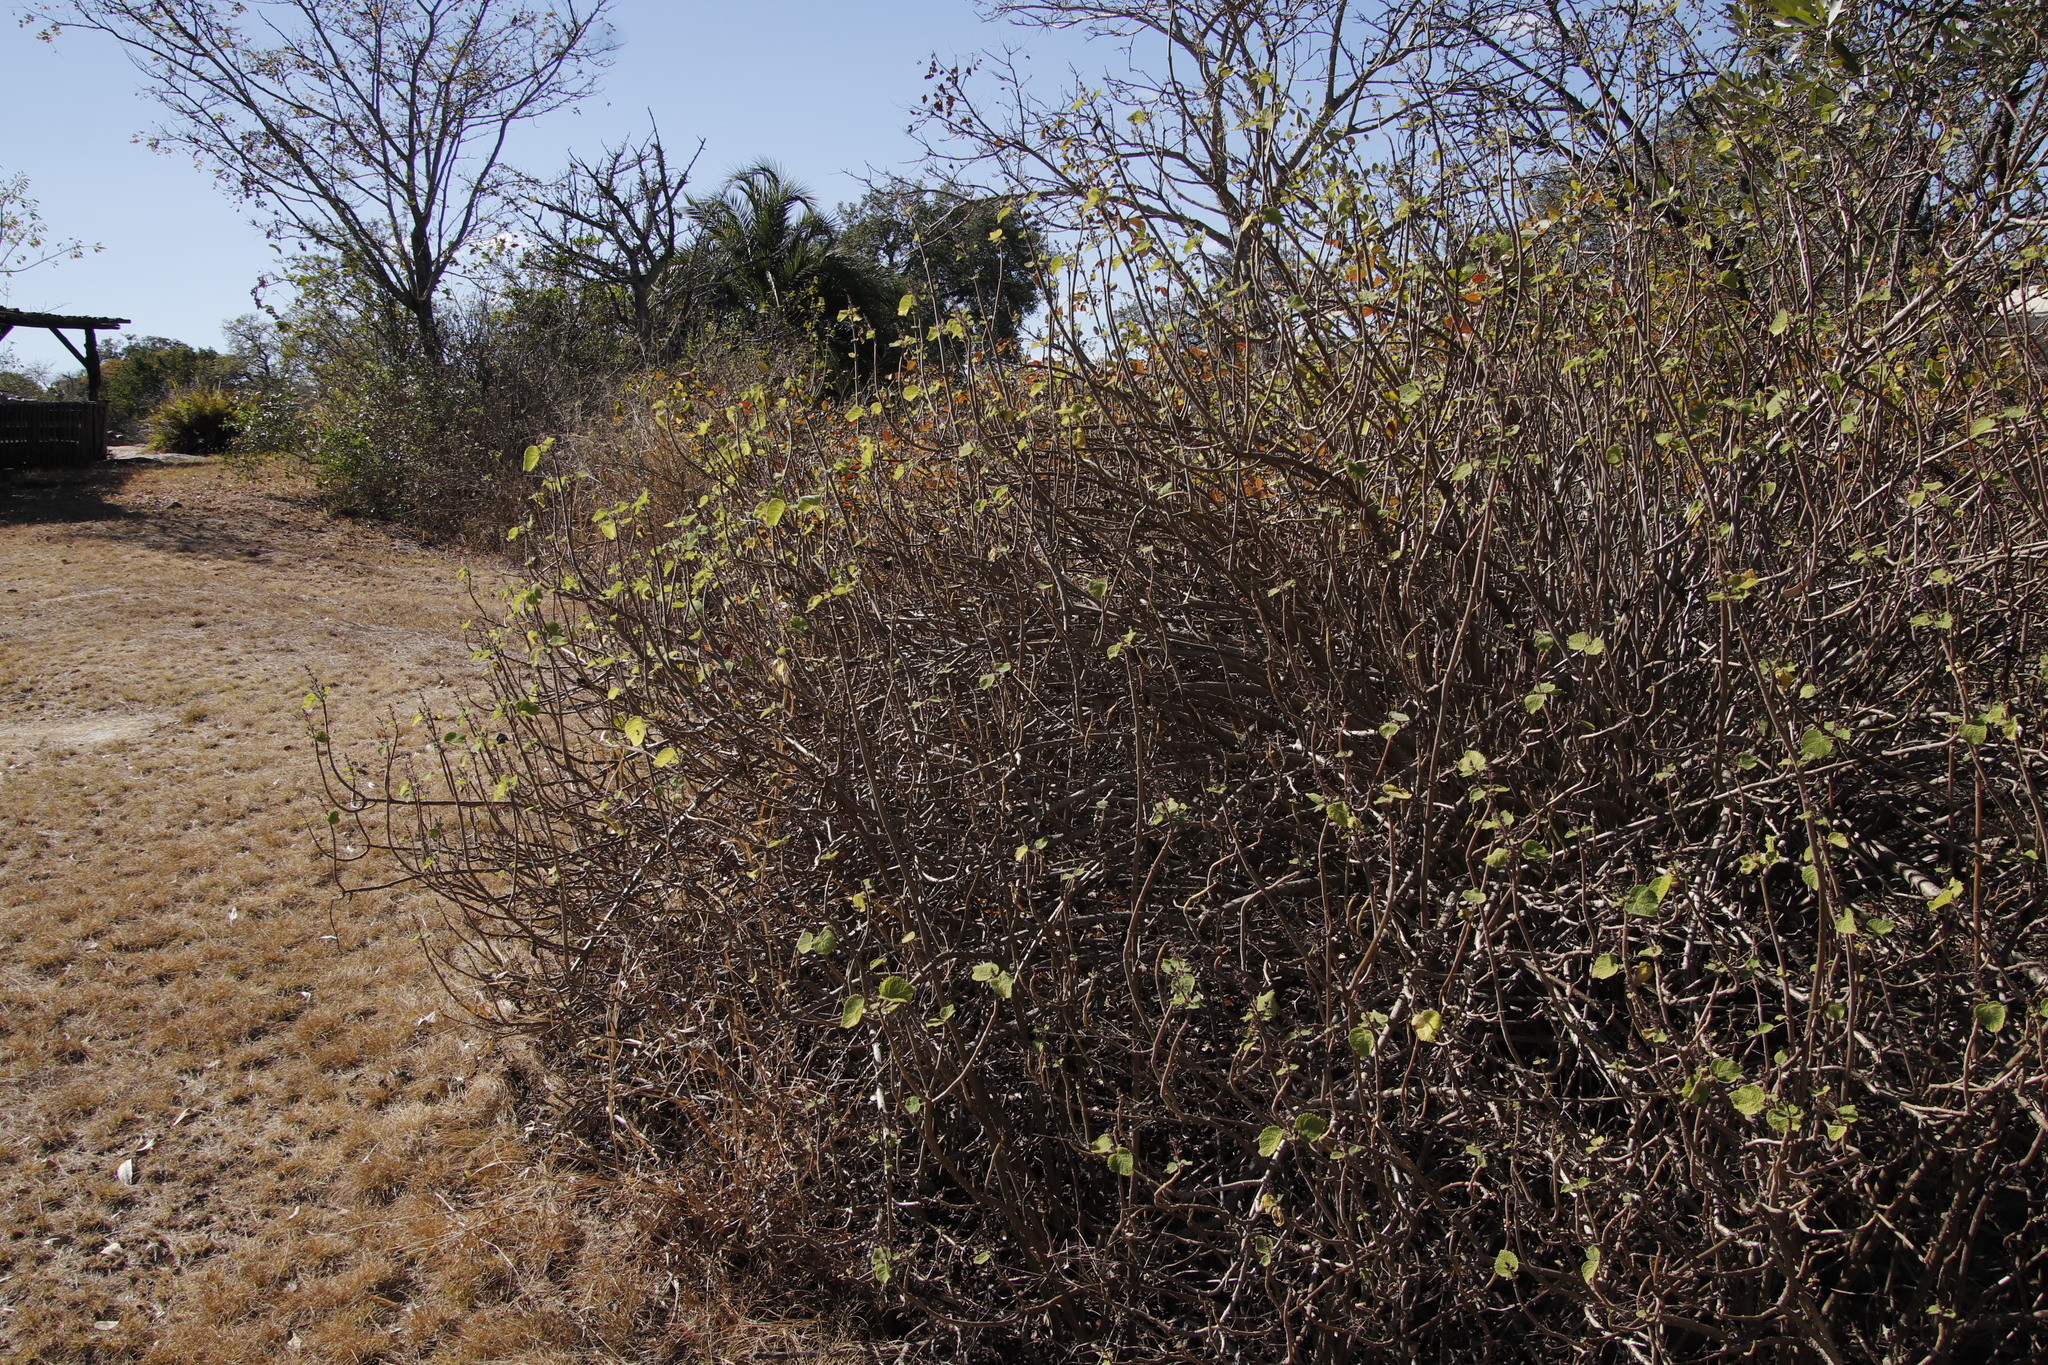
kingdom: Plantae
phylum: Tracheophyta
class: Magnoliopsida
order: Lamiales
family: Lamiaceae
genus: Tetradenia
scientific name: Tetradenia riparia
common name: Gingerbush
